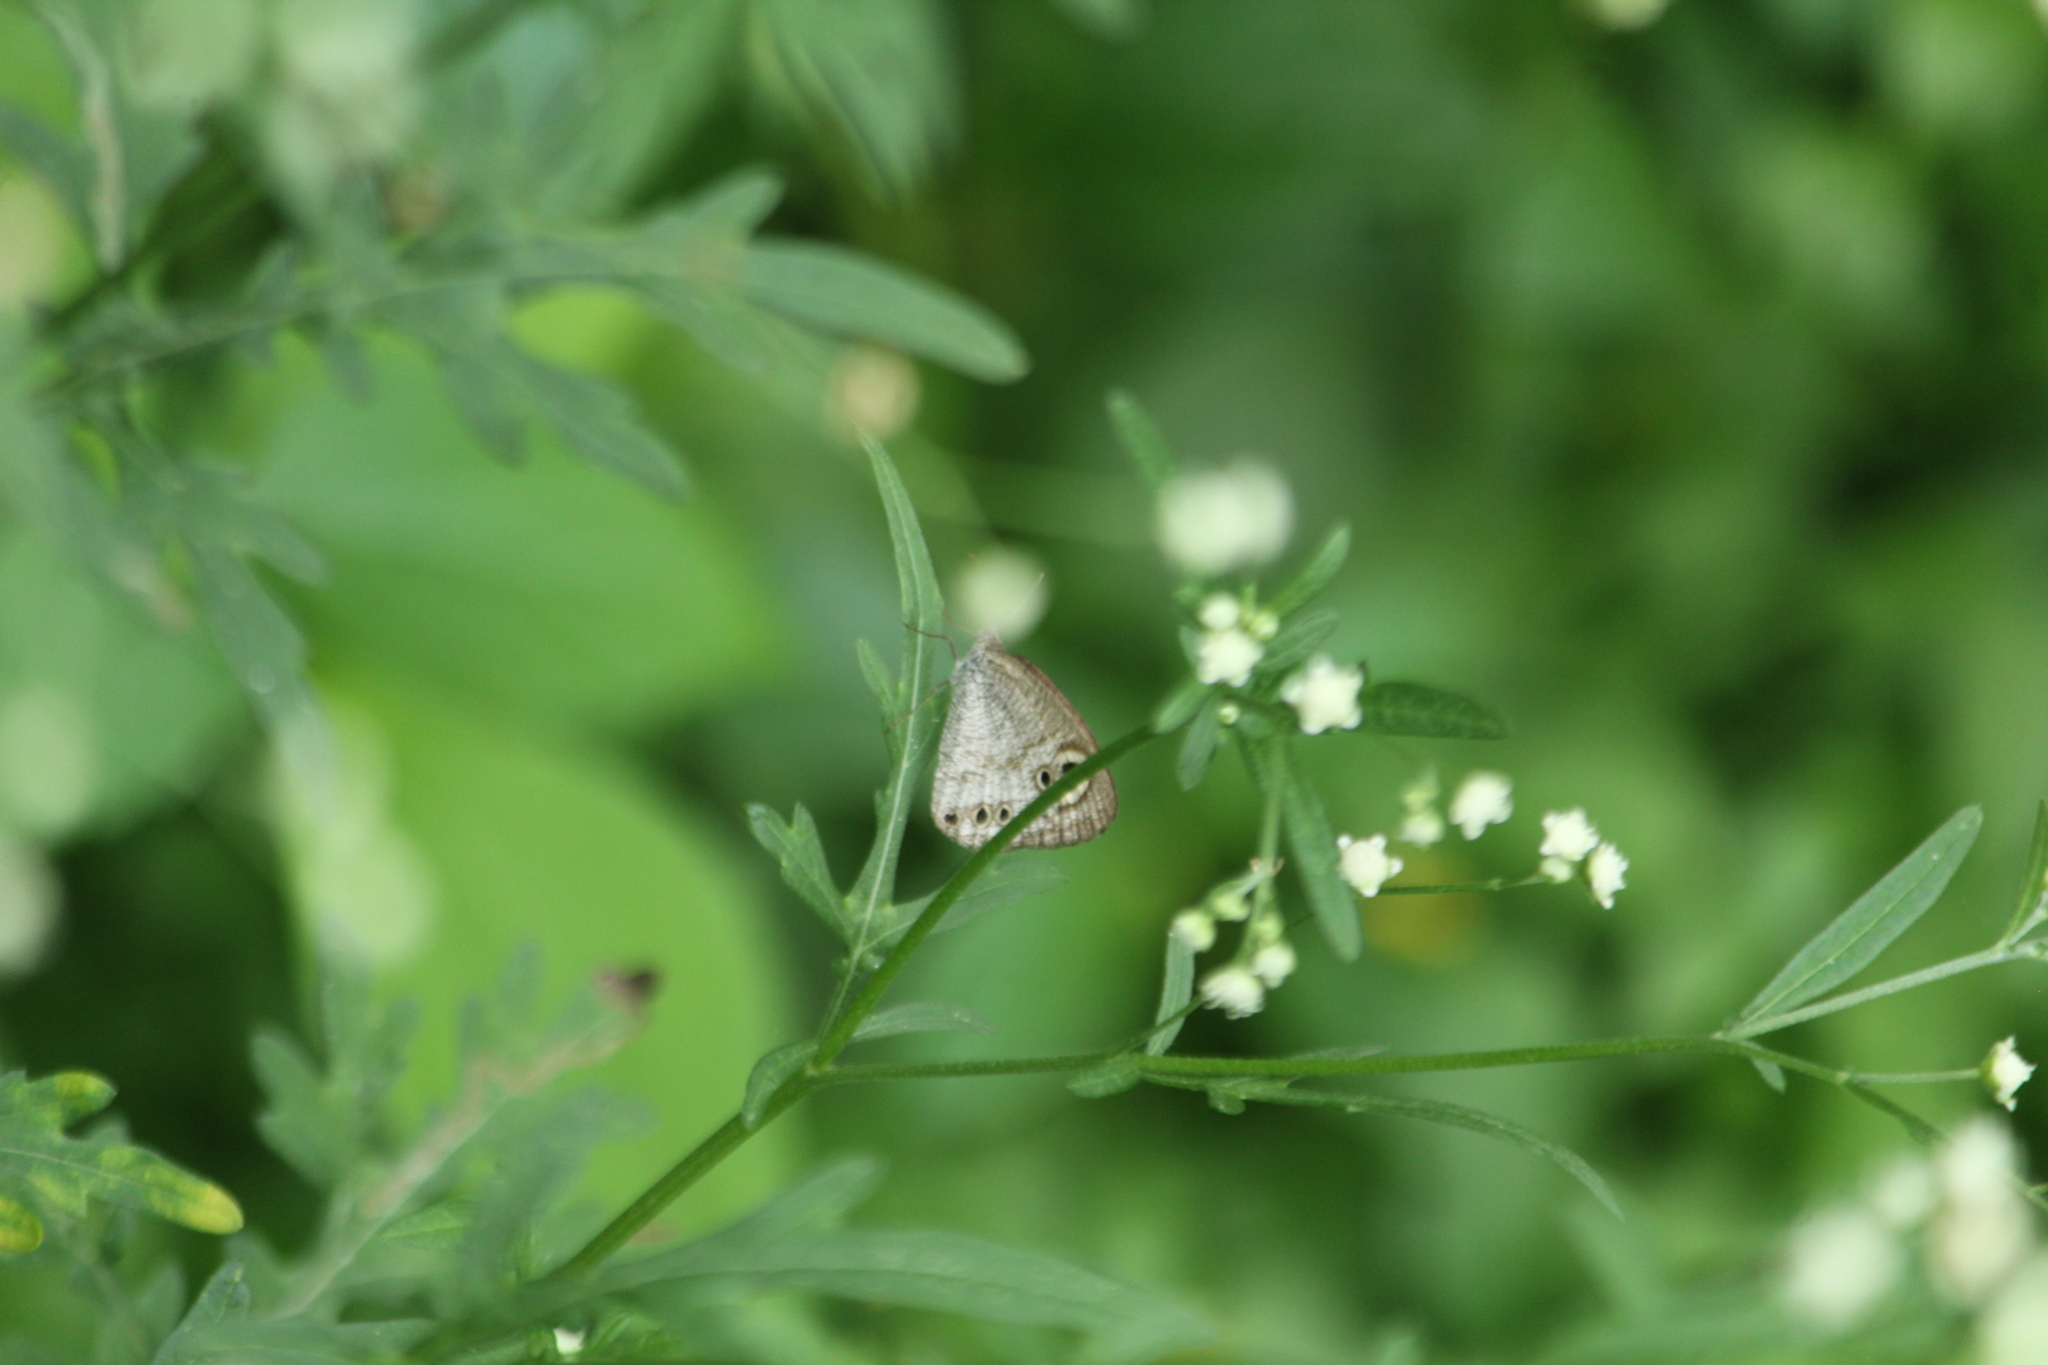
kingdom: Animalia
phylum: Arthropoda
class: Insecta
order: Lepidoptera
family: Nymphalidae
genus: Ypthima
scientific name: Ypthima huebneri
